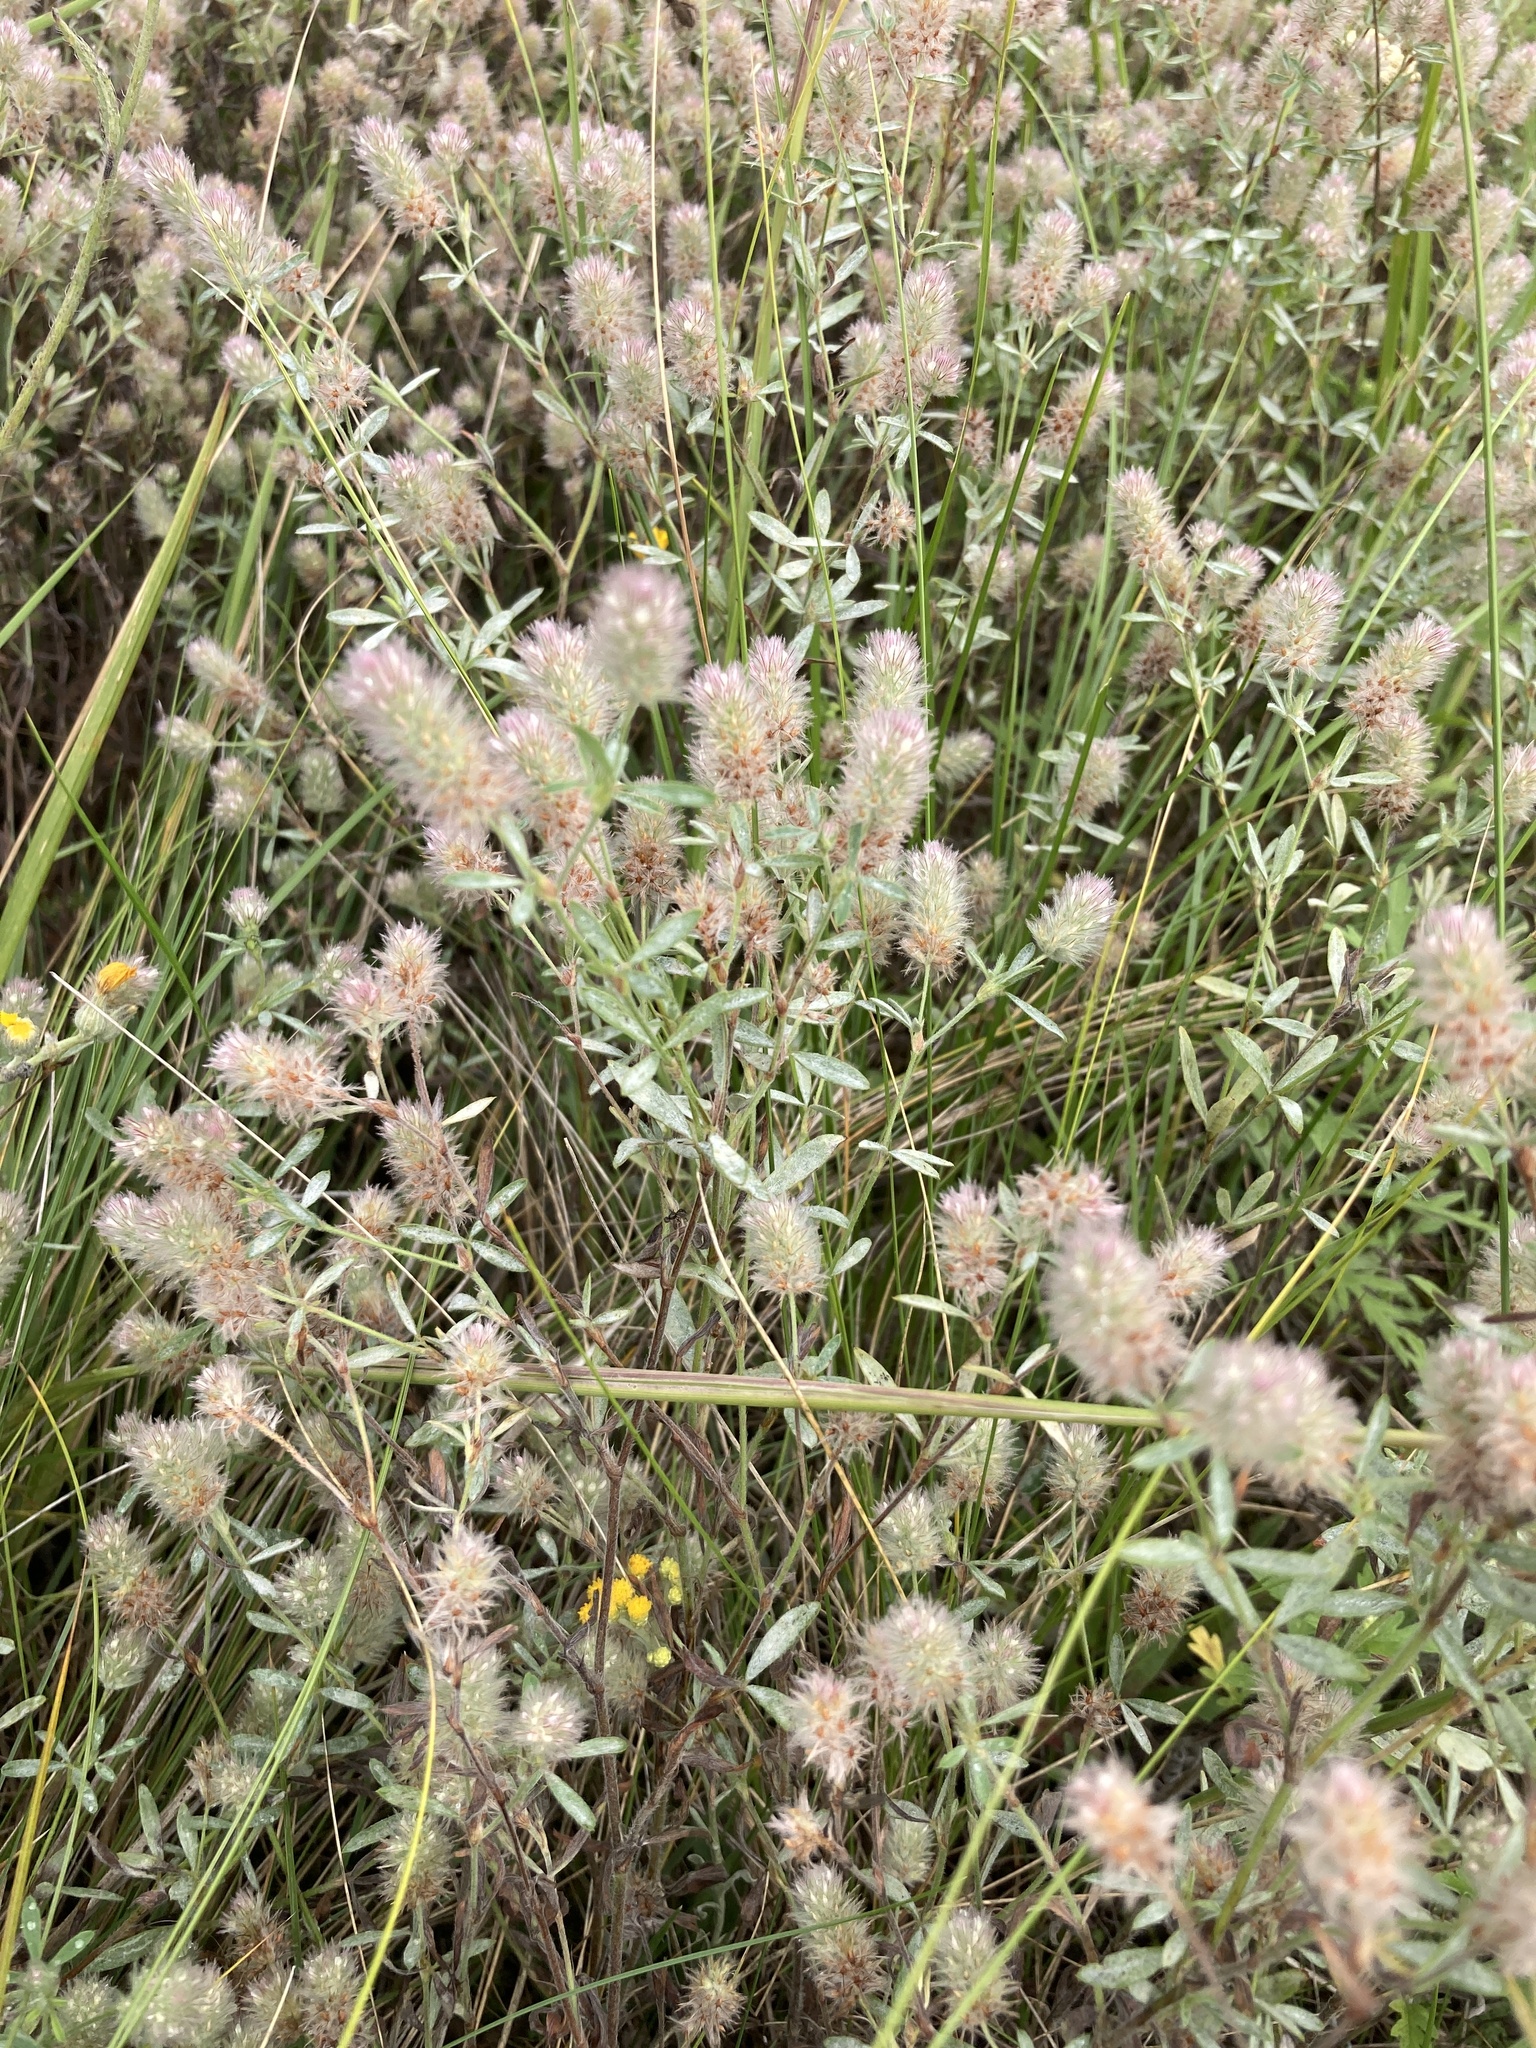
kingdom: Plantae
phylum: Tracheophyta
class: Magnoliopsida
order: Fabales
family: Fabaceae
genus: Trifolium
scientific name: Trifolium arvense
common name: Hare's-foot clover
